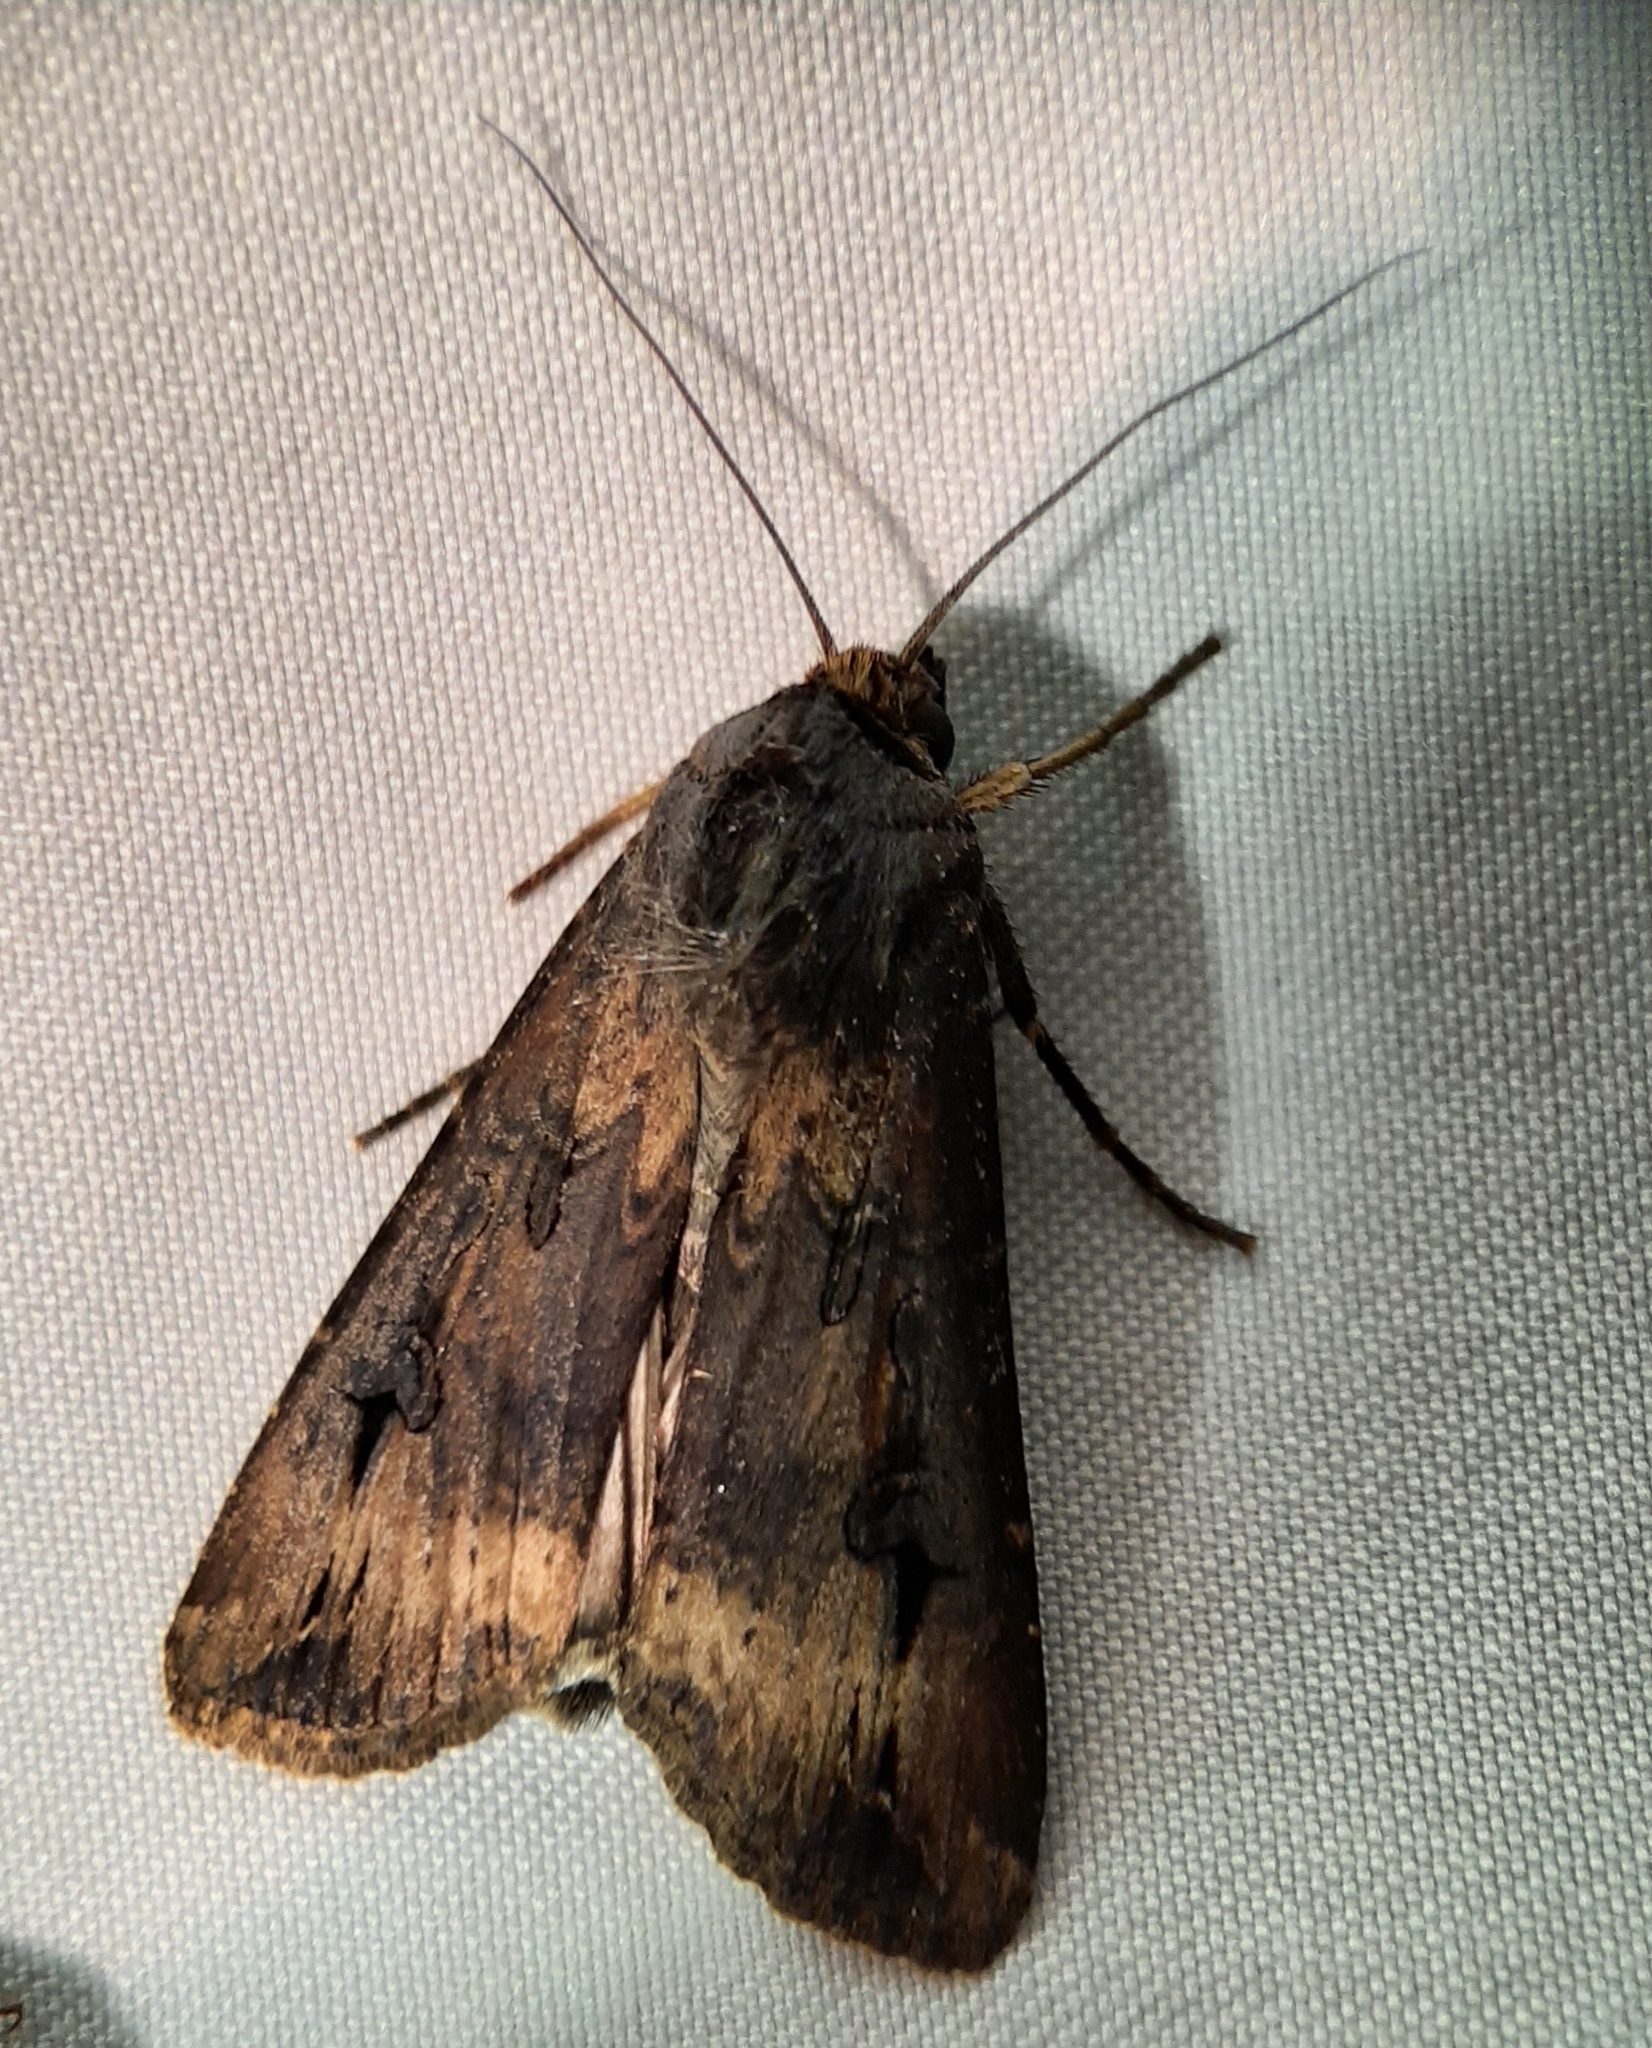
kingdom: Animalia
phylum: Arthropoda
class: Insecta
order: Lepidoptera
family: Noctuidae
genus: Agrotis
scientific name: Agrotis ipsilon
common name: Dark sword-grass
